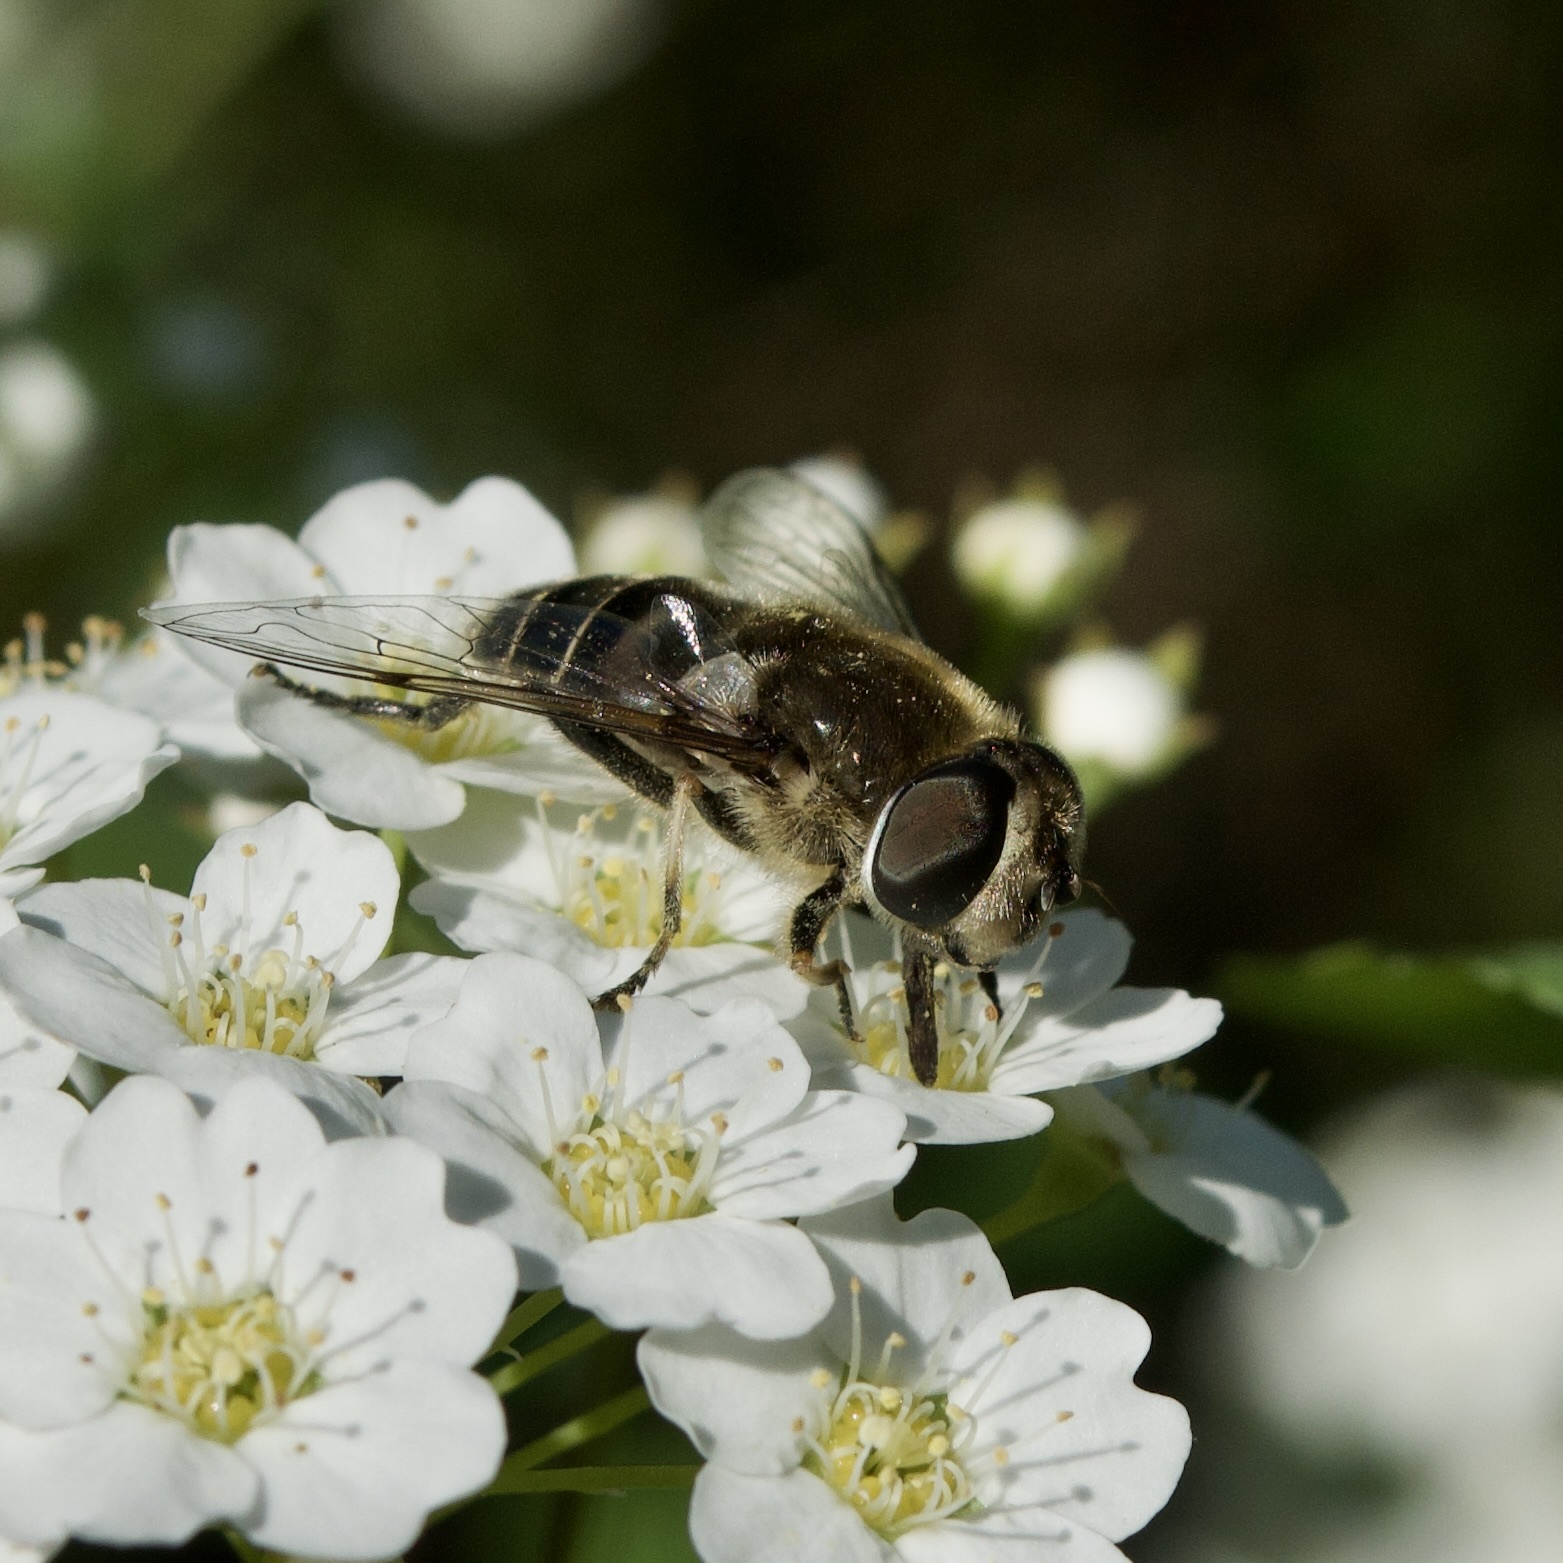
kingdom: Animalia
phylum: Arthropoda
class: Insecta
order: Diptera
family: Syrphidae
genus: Eristalis
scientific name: Eristalis dimidiata
